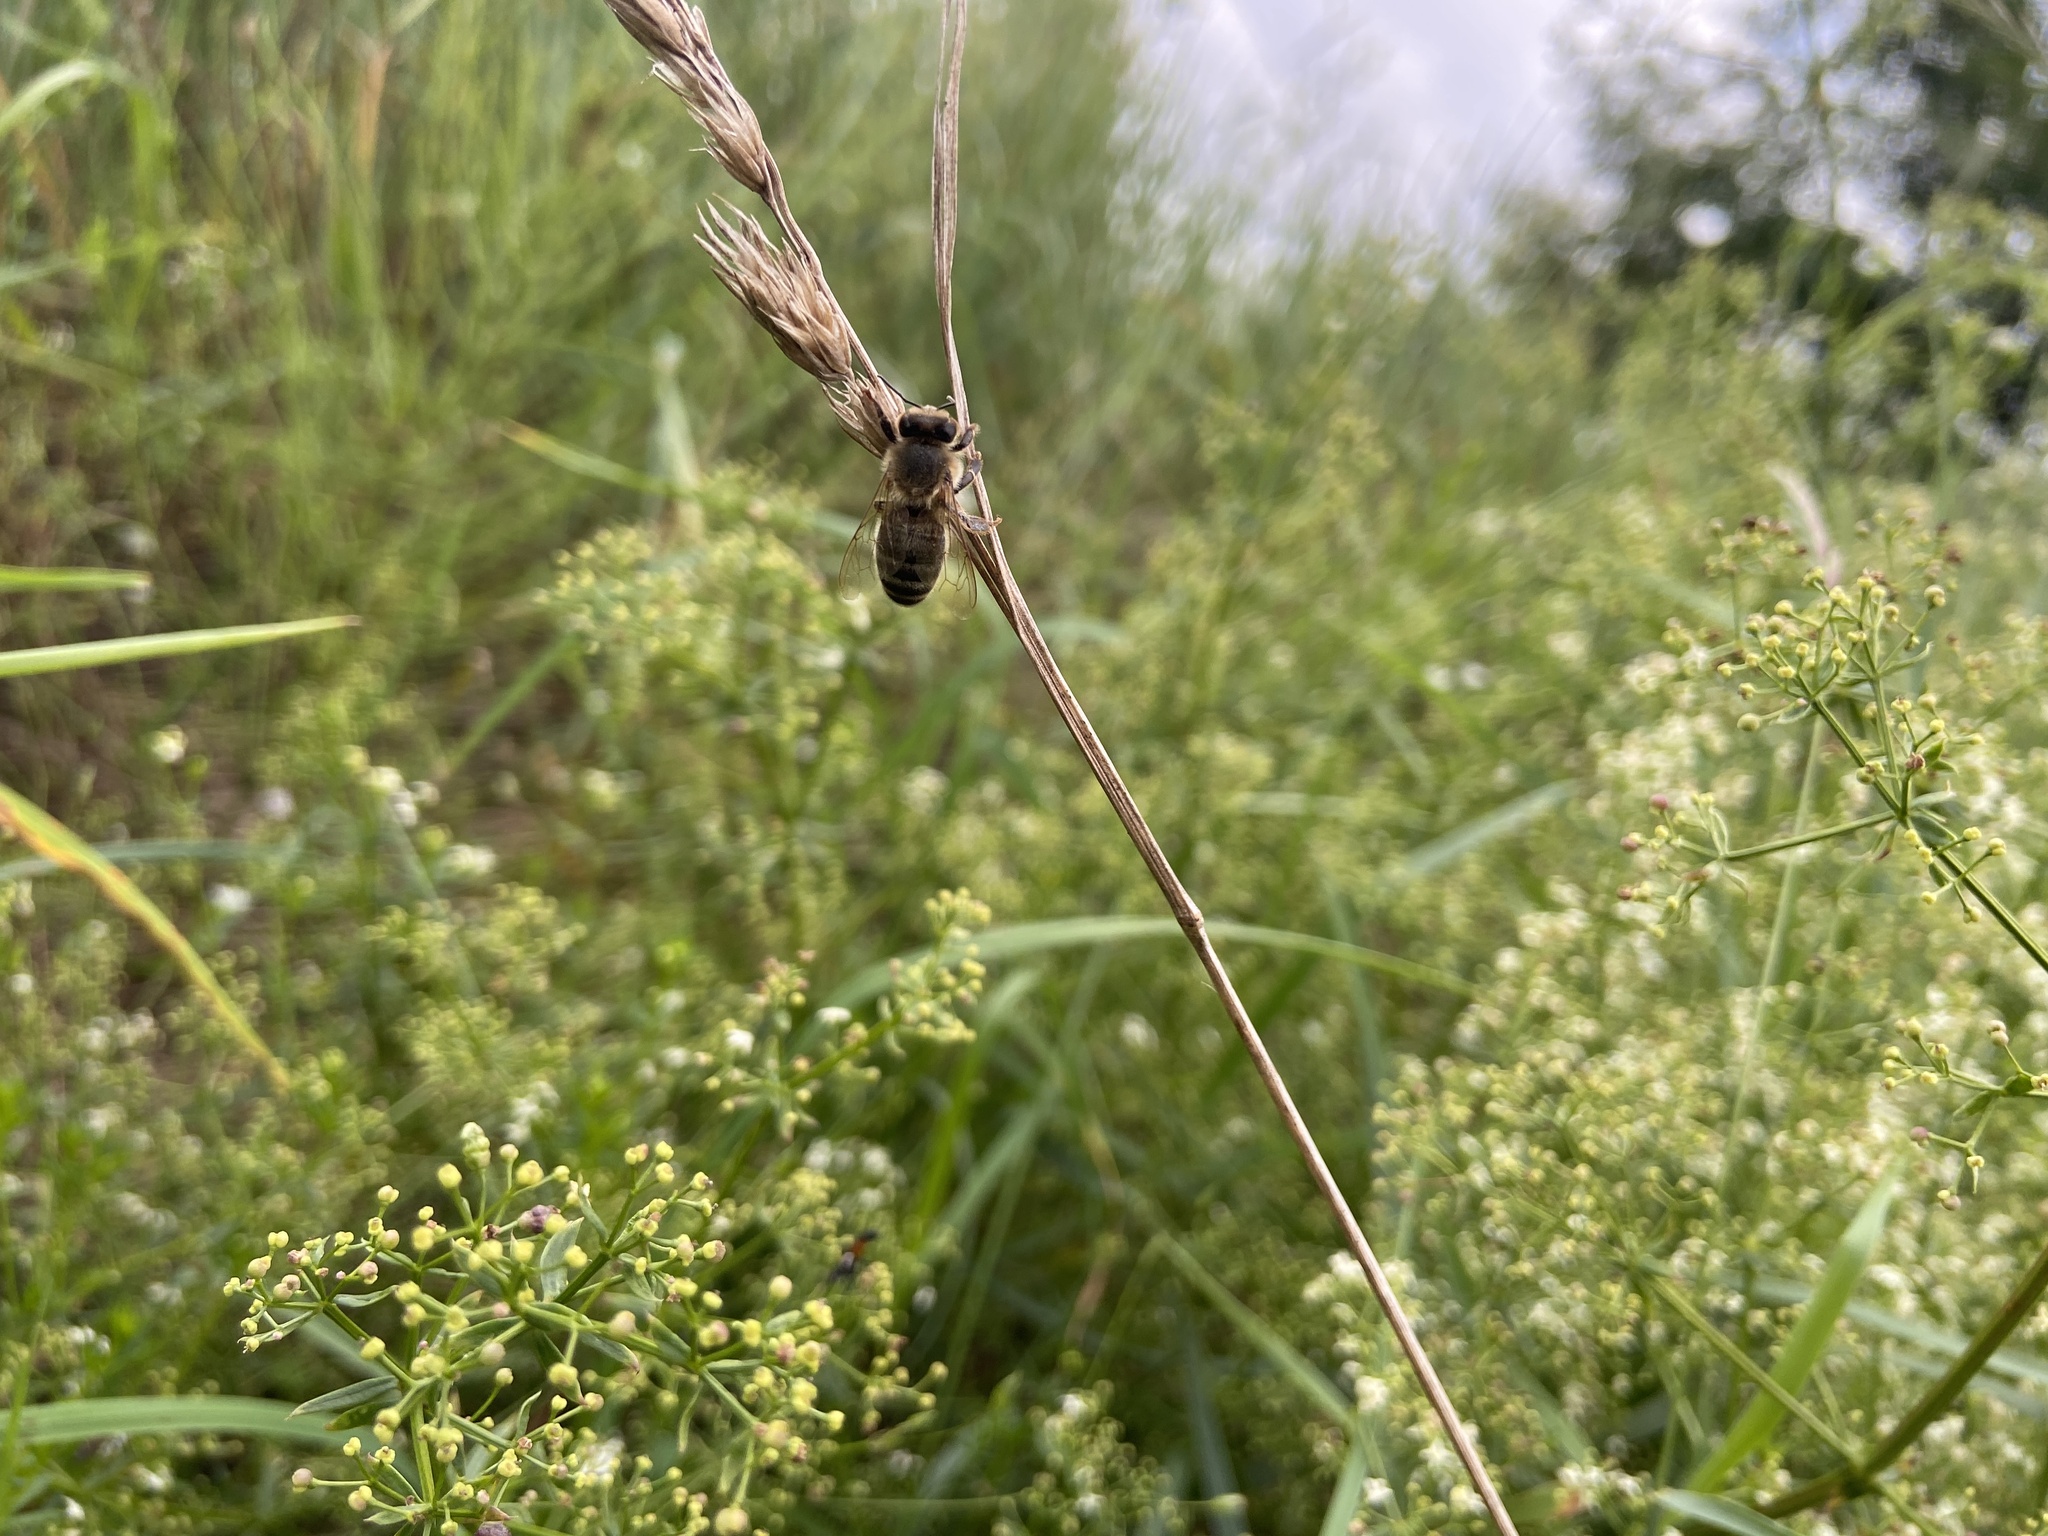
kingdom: Animalia
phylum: Arthropoda
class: Insecta
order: Hymenoptera
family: Apidae
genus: Apis
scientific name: Apis mellifera
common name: Honey bee
